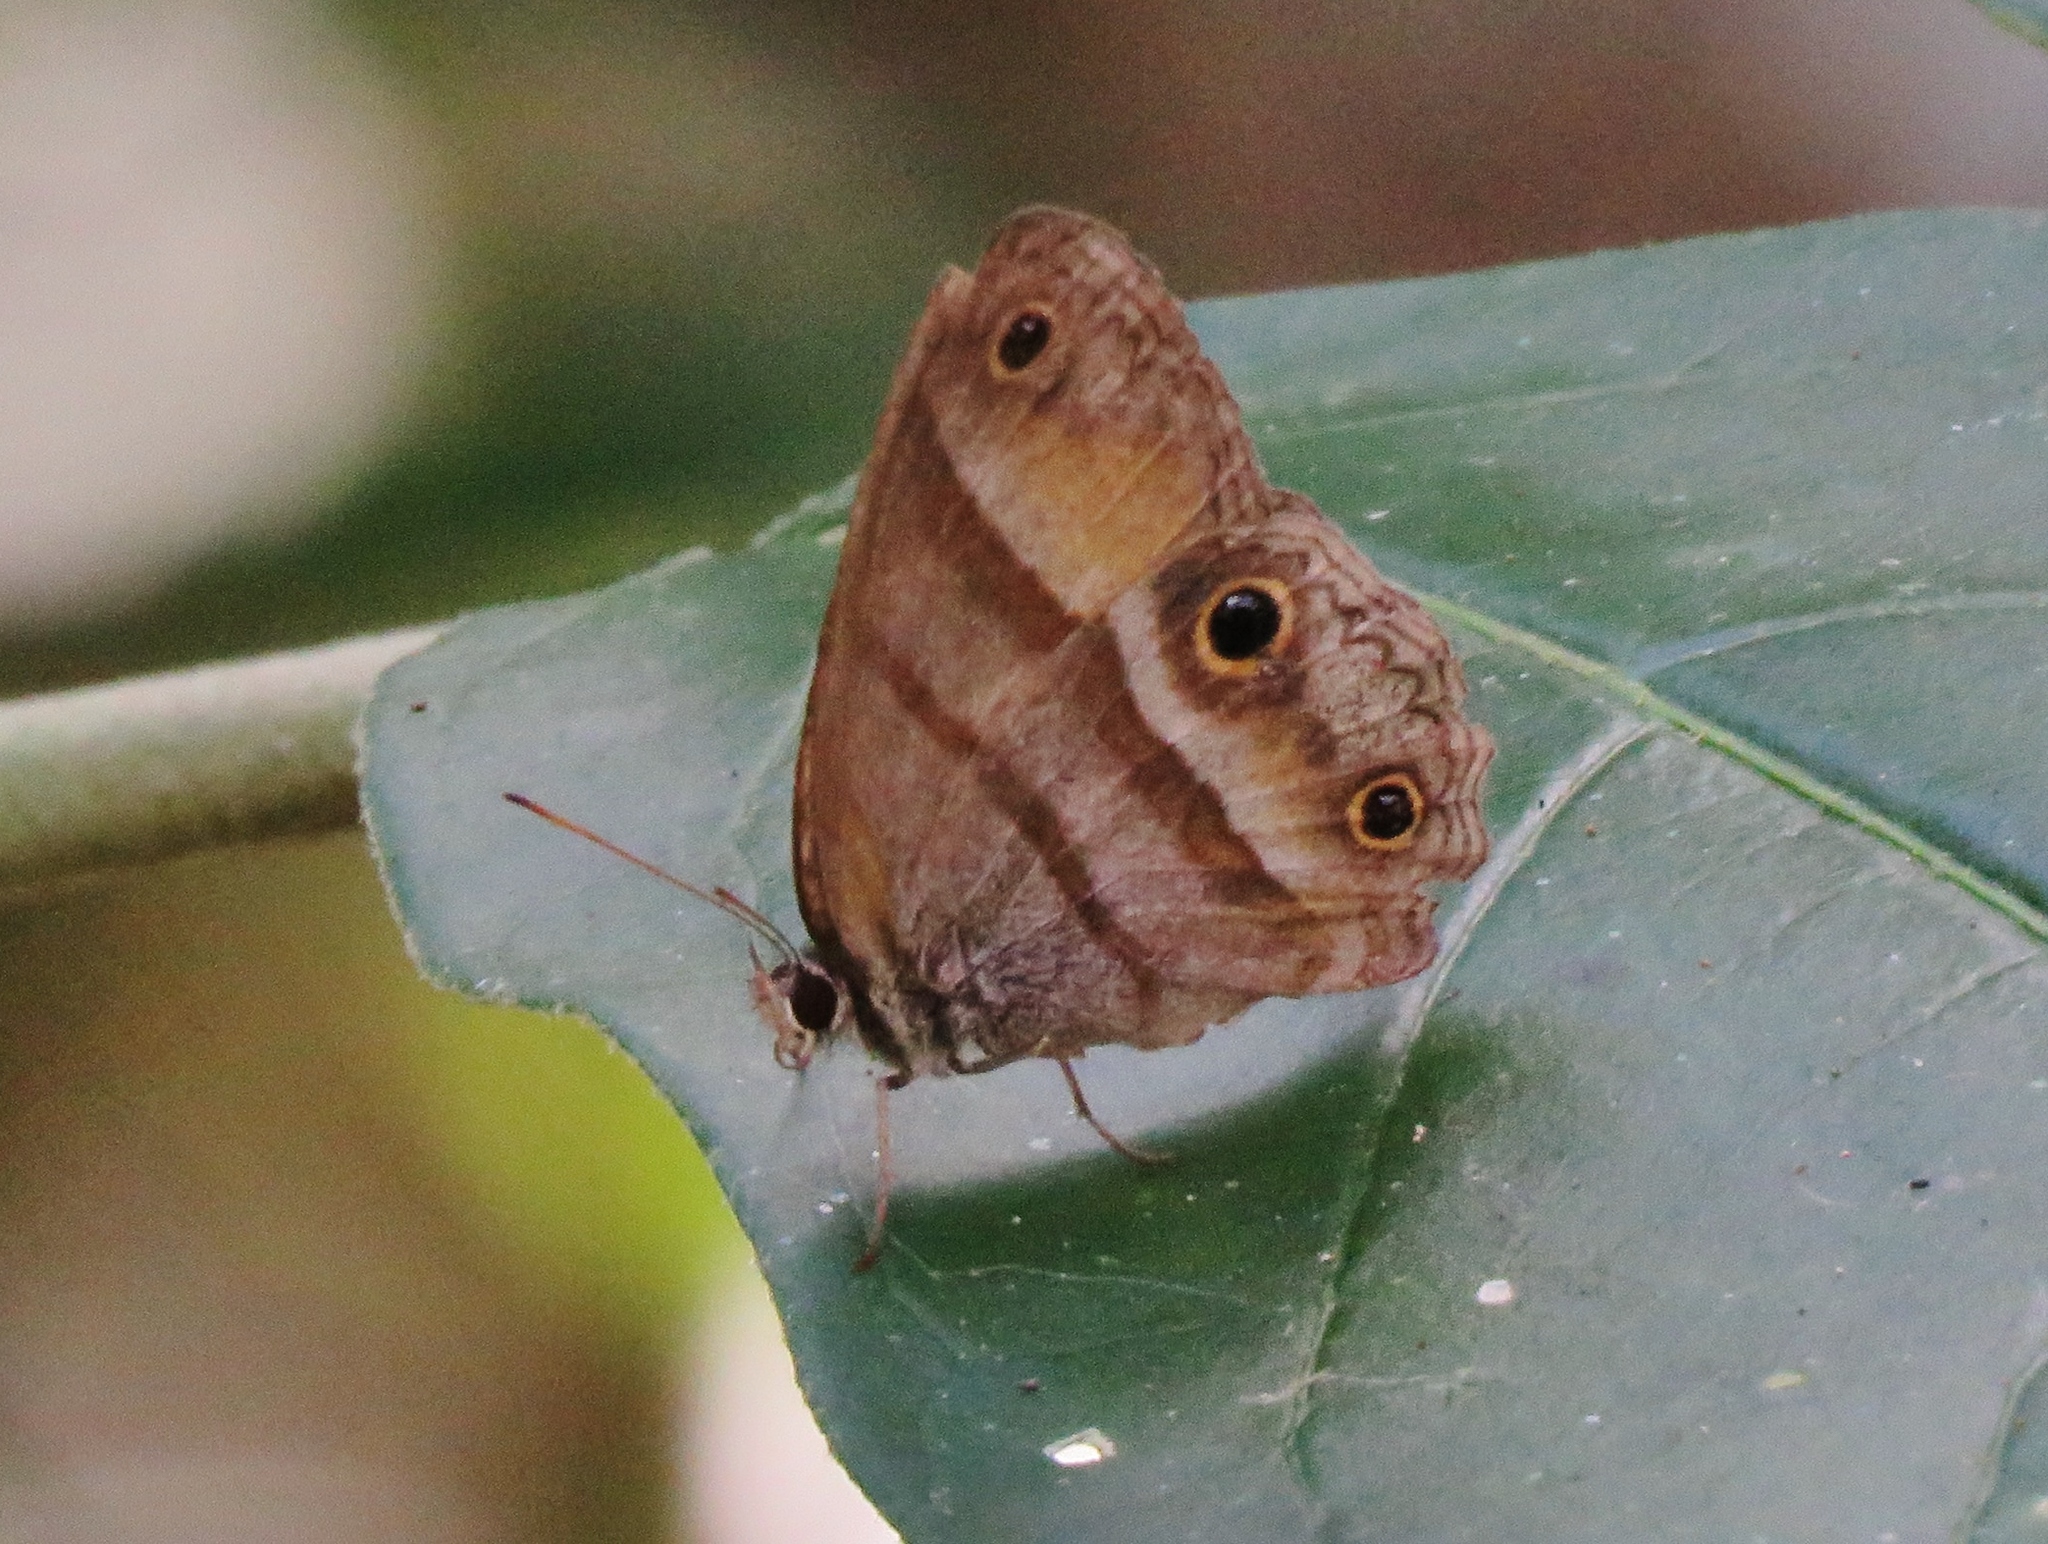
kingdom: Animalia
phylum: Arthropoda
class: Insecta
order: Lepidoptera
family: Nymphalidae
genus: Argyreuptychia
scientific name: Argyreuptychia penelope
